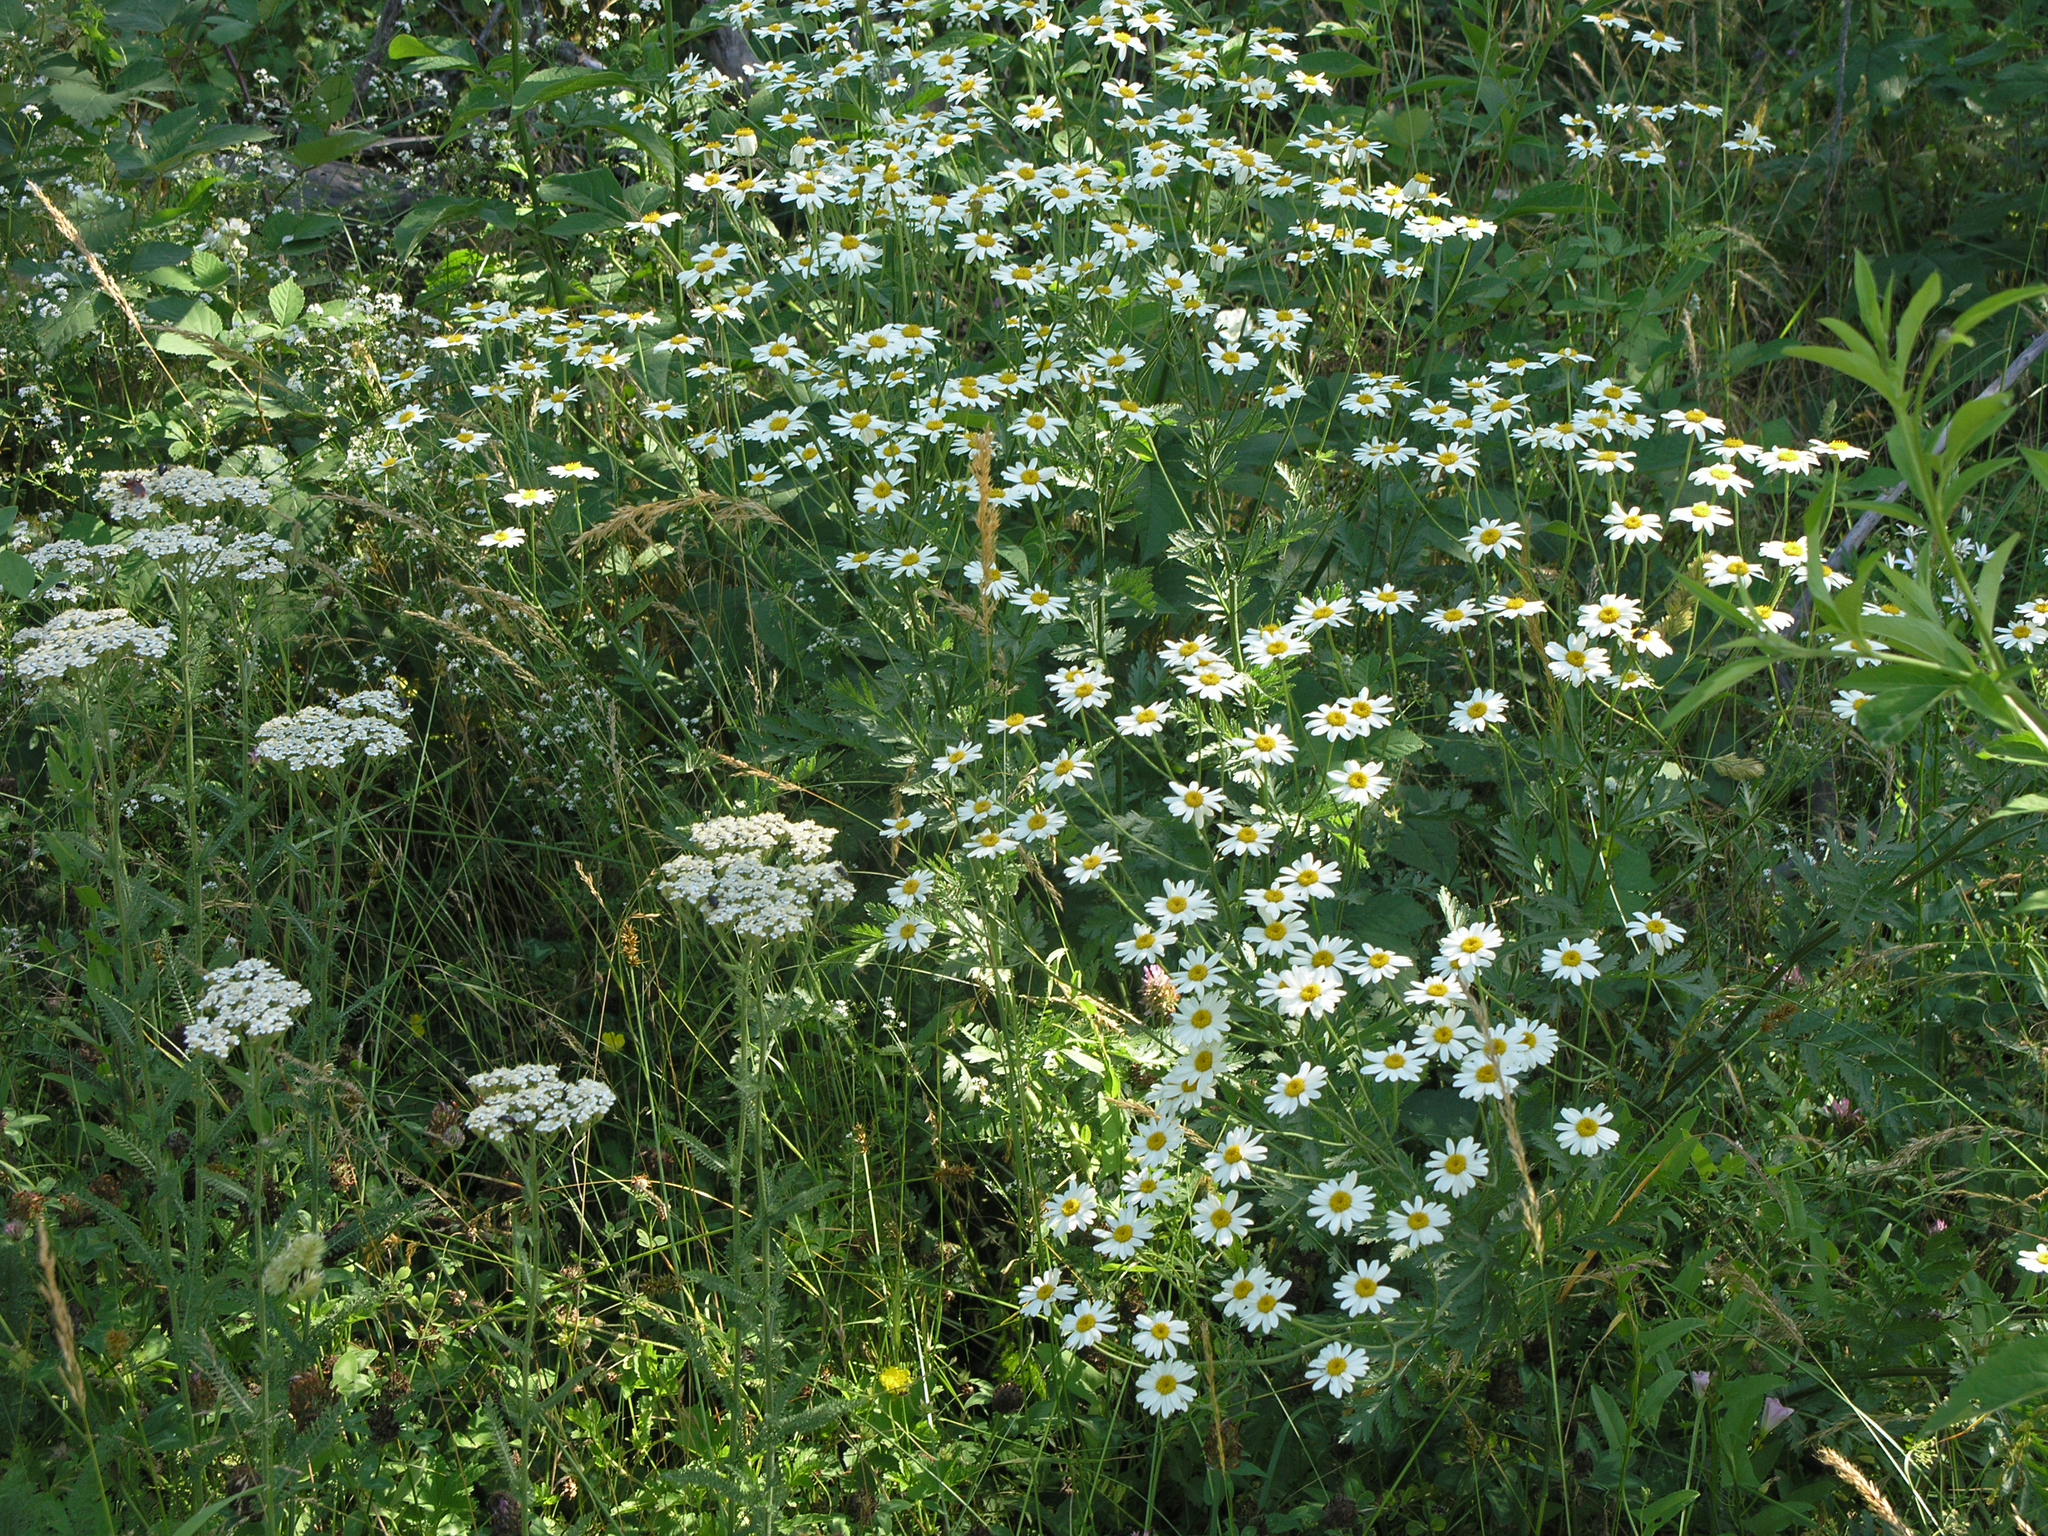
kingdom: Plantae
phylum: Tracheophyta
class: Magnoliopsida
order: Asterales
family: Asteraceae
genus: Tripleurospermum
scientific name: Tripleurospermum caucasicum
